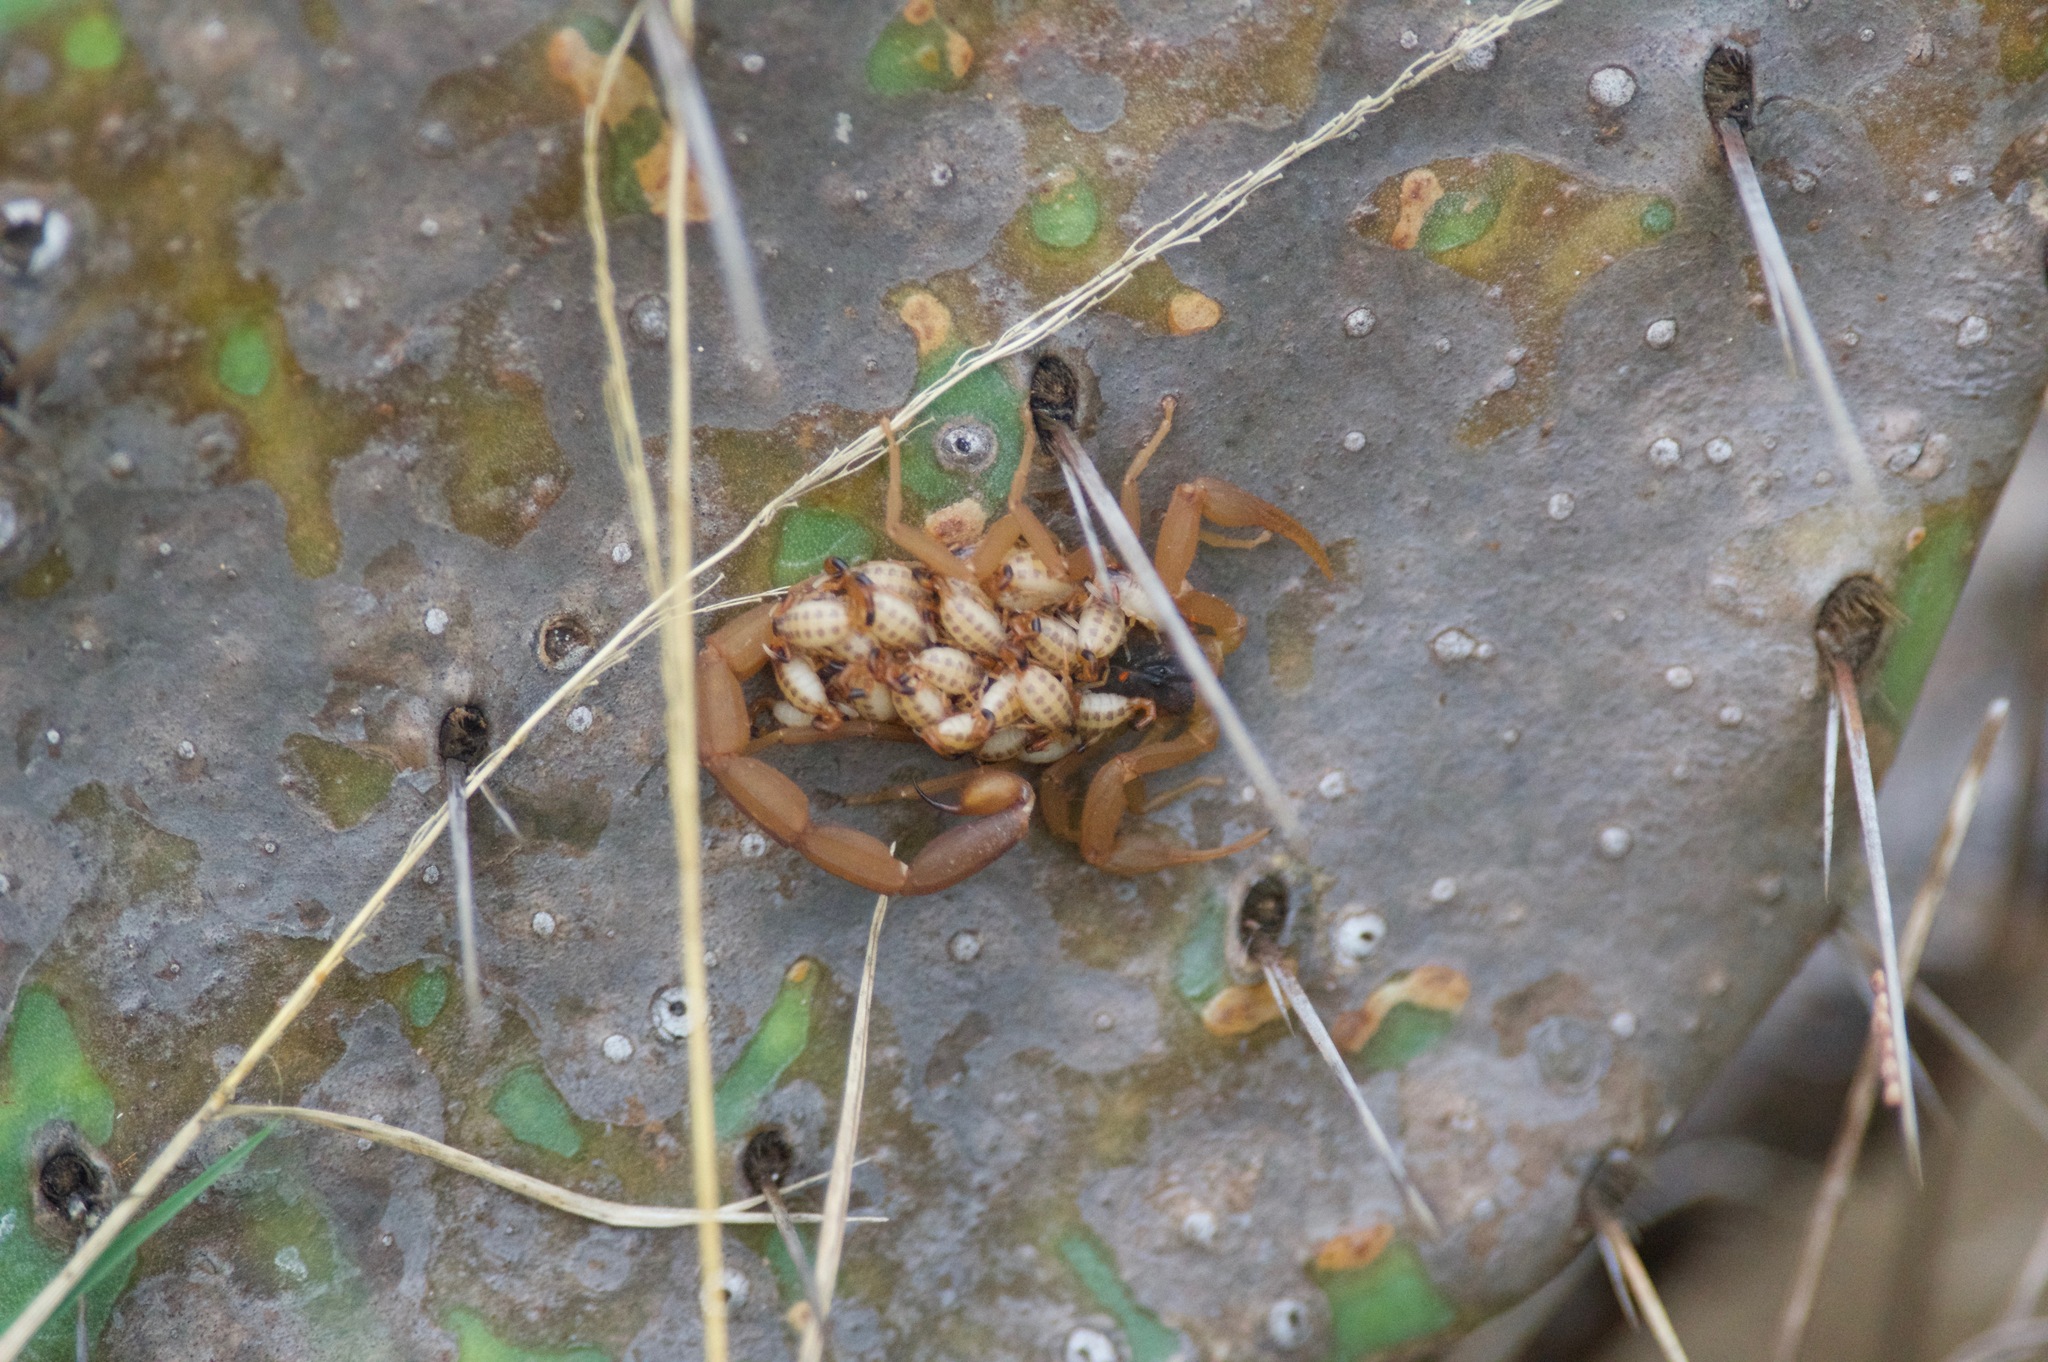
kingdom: Animalia
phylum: Arthropoda
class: Arachnida
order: Scorpiones
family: Buthidae
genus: Centruroides
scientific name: Centruroides vittatus
